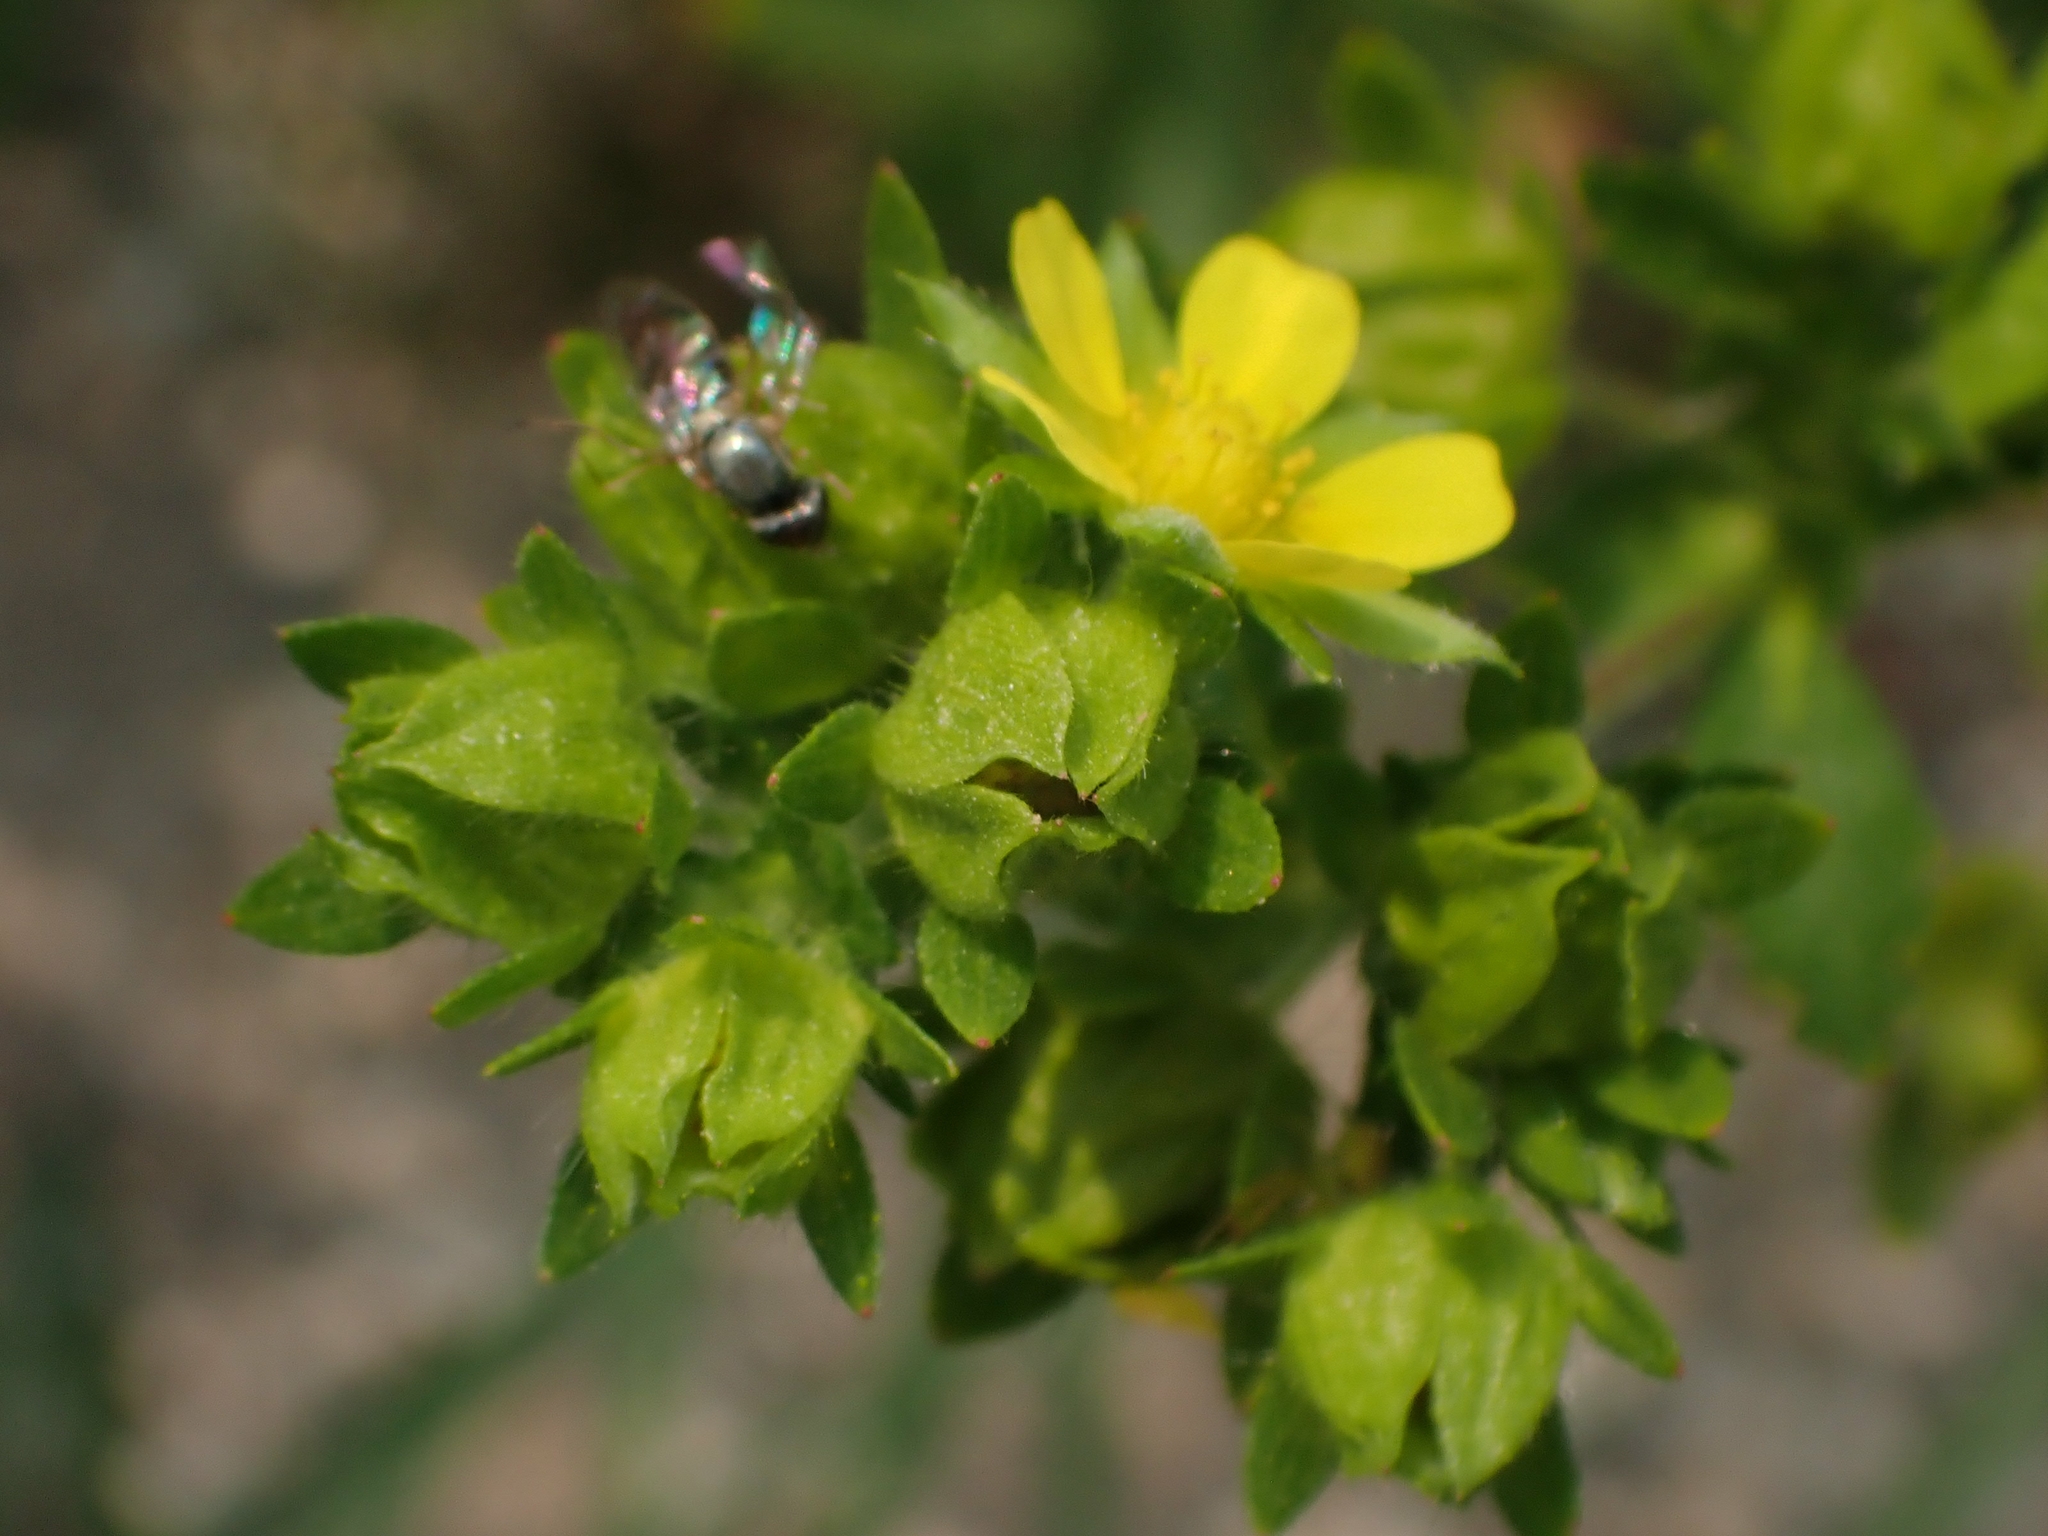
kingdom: Plantae
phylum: Tracheophyta
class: Magnoliopsida
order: Rosales
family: Rosaceae
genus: Potentilla
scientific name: Potentilla norvegica
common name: Ternate-leaved cinquefoil
